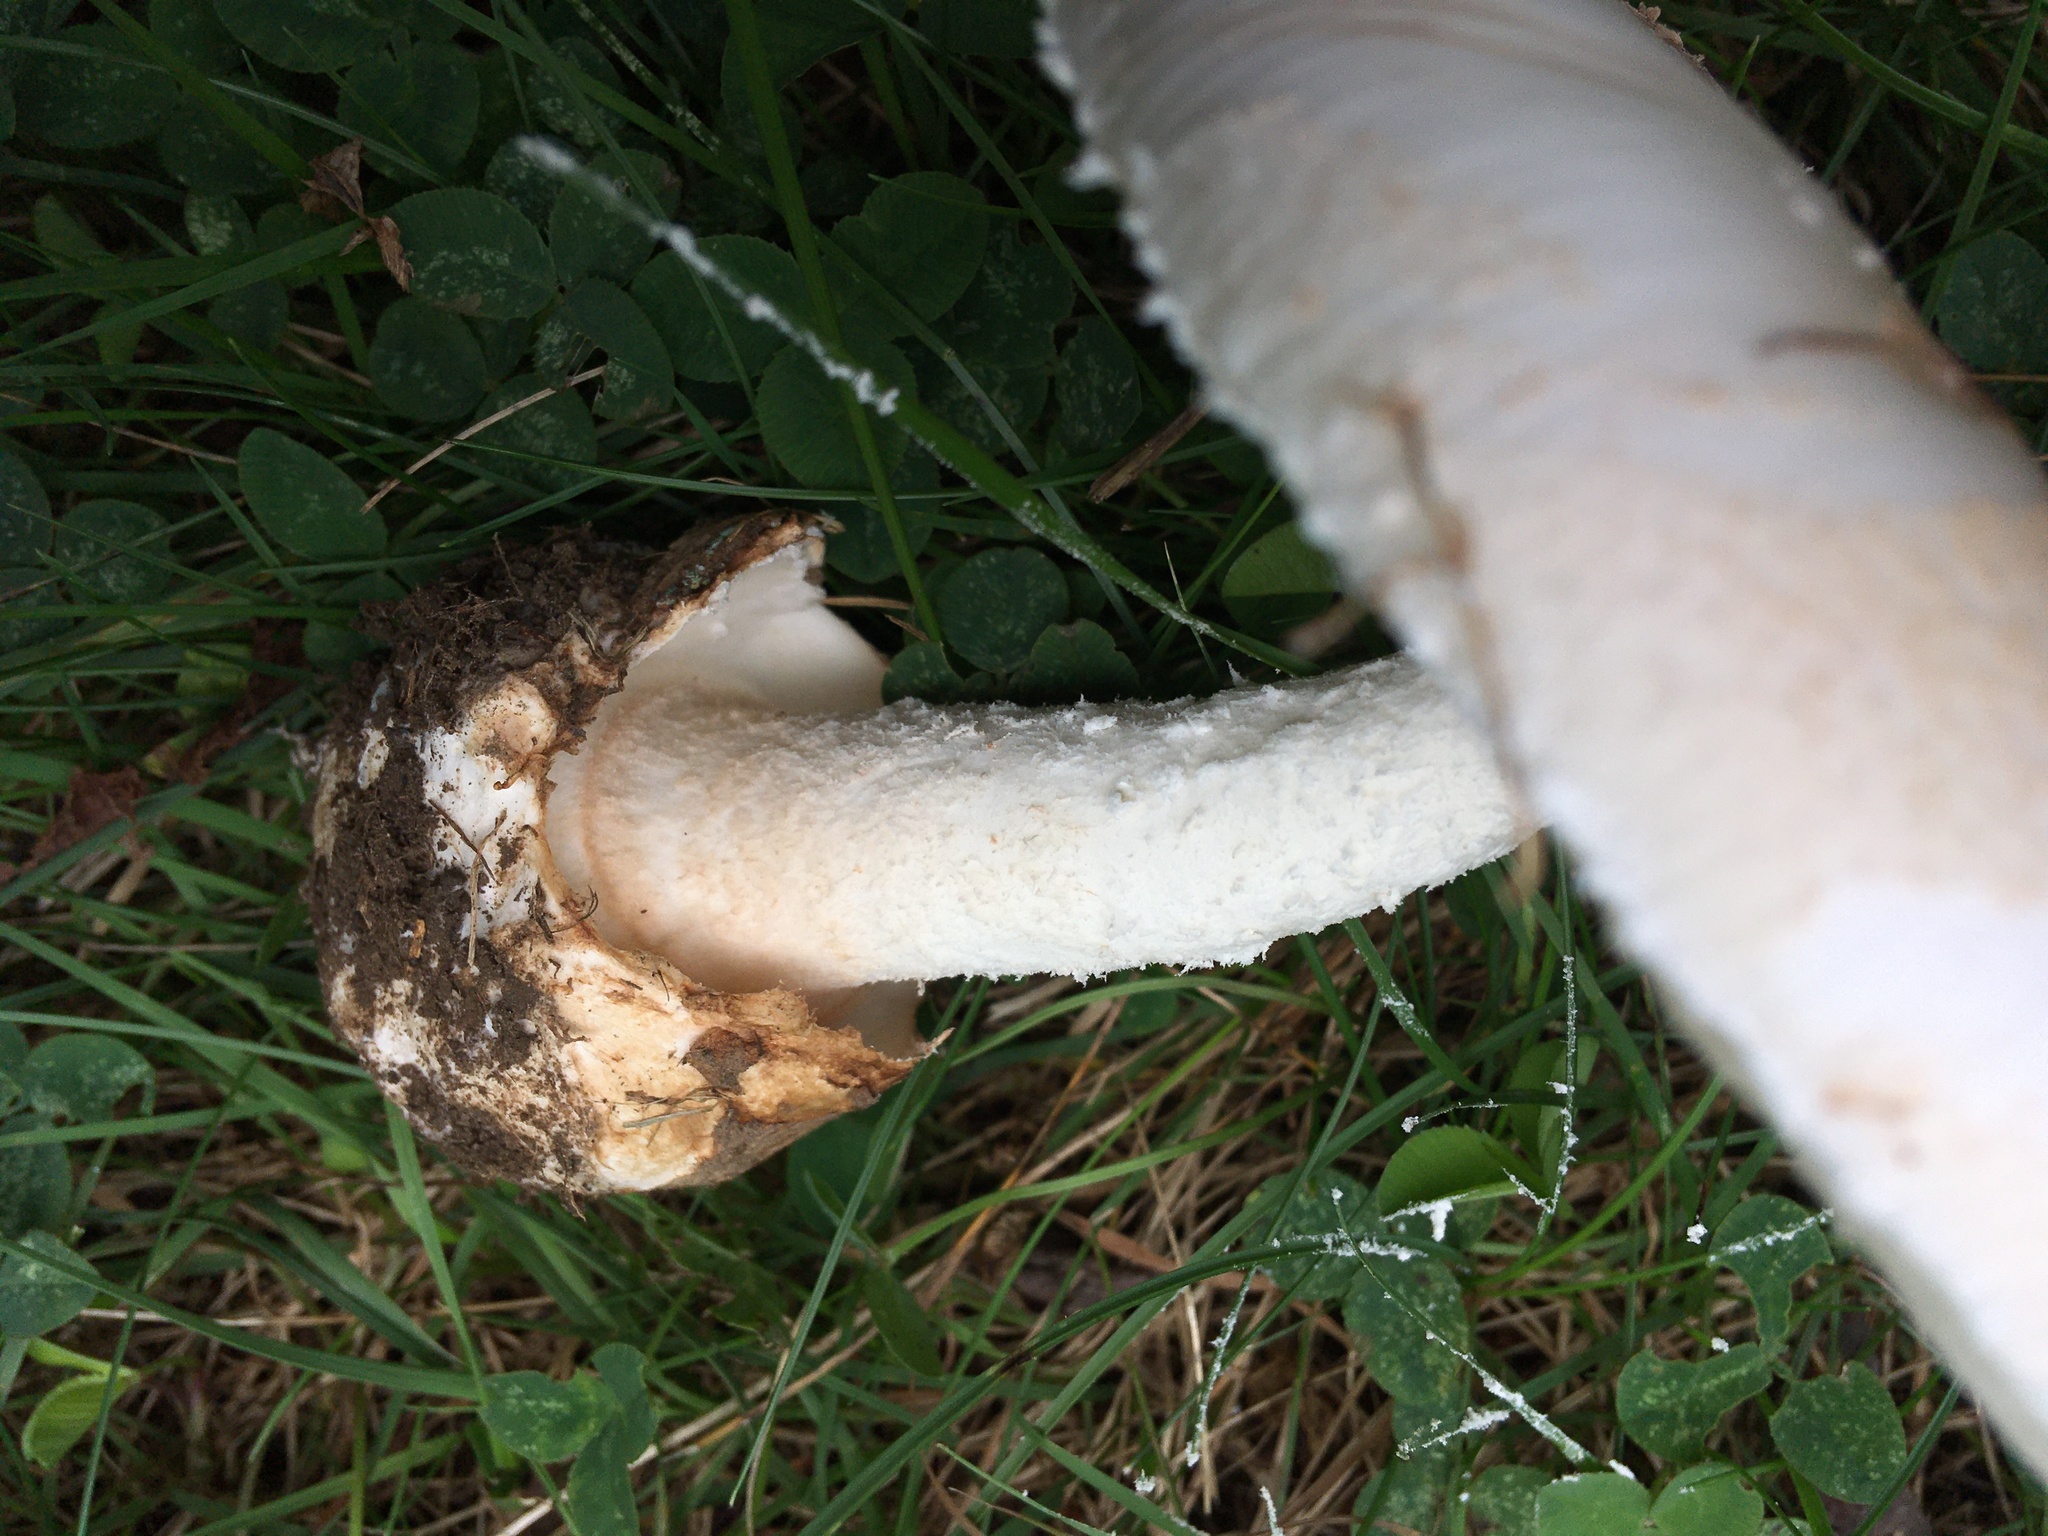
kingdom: Fungi
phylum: Basidiomycota
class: Agaricomycetes
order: Agaricales
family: Amanitaceae
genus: Amanita
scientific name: Amanita peckiana
